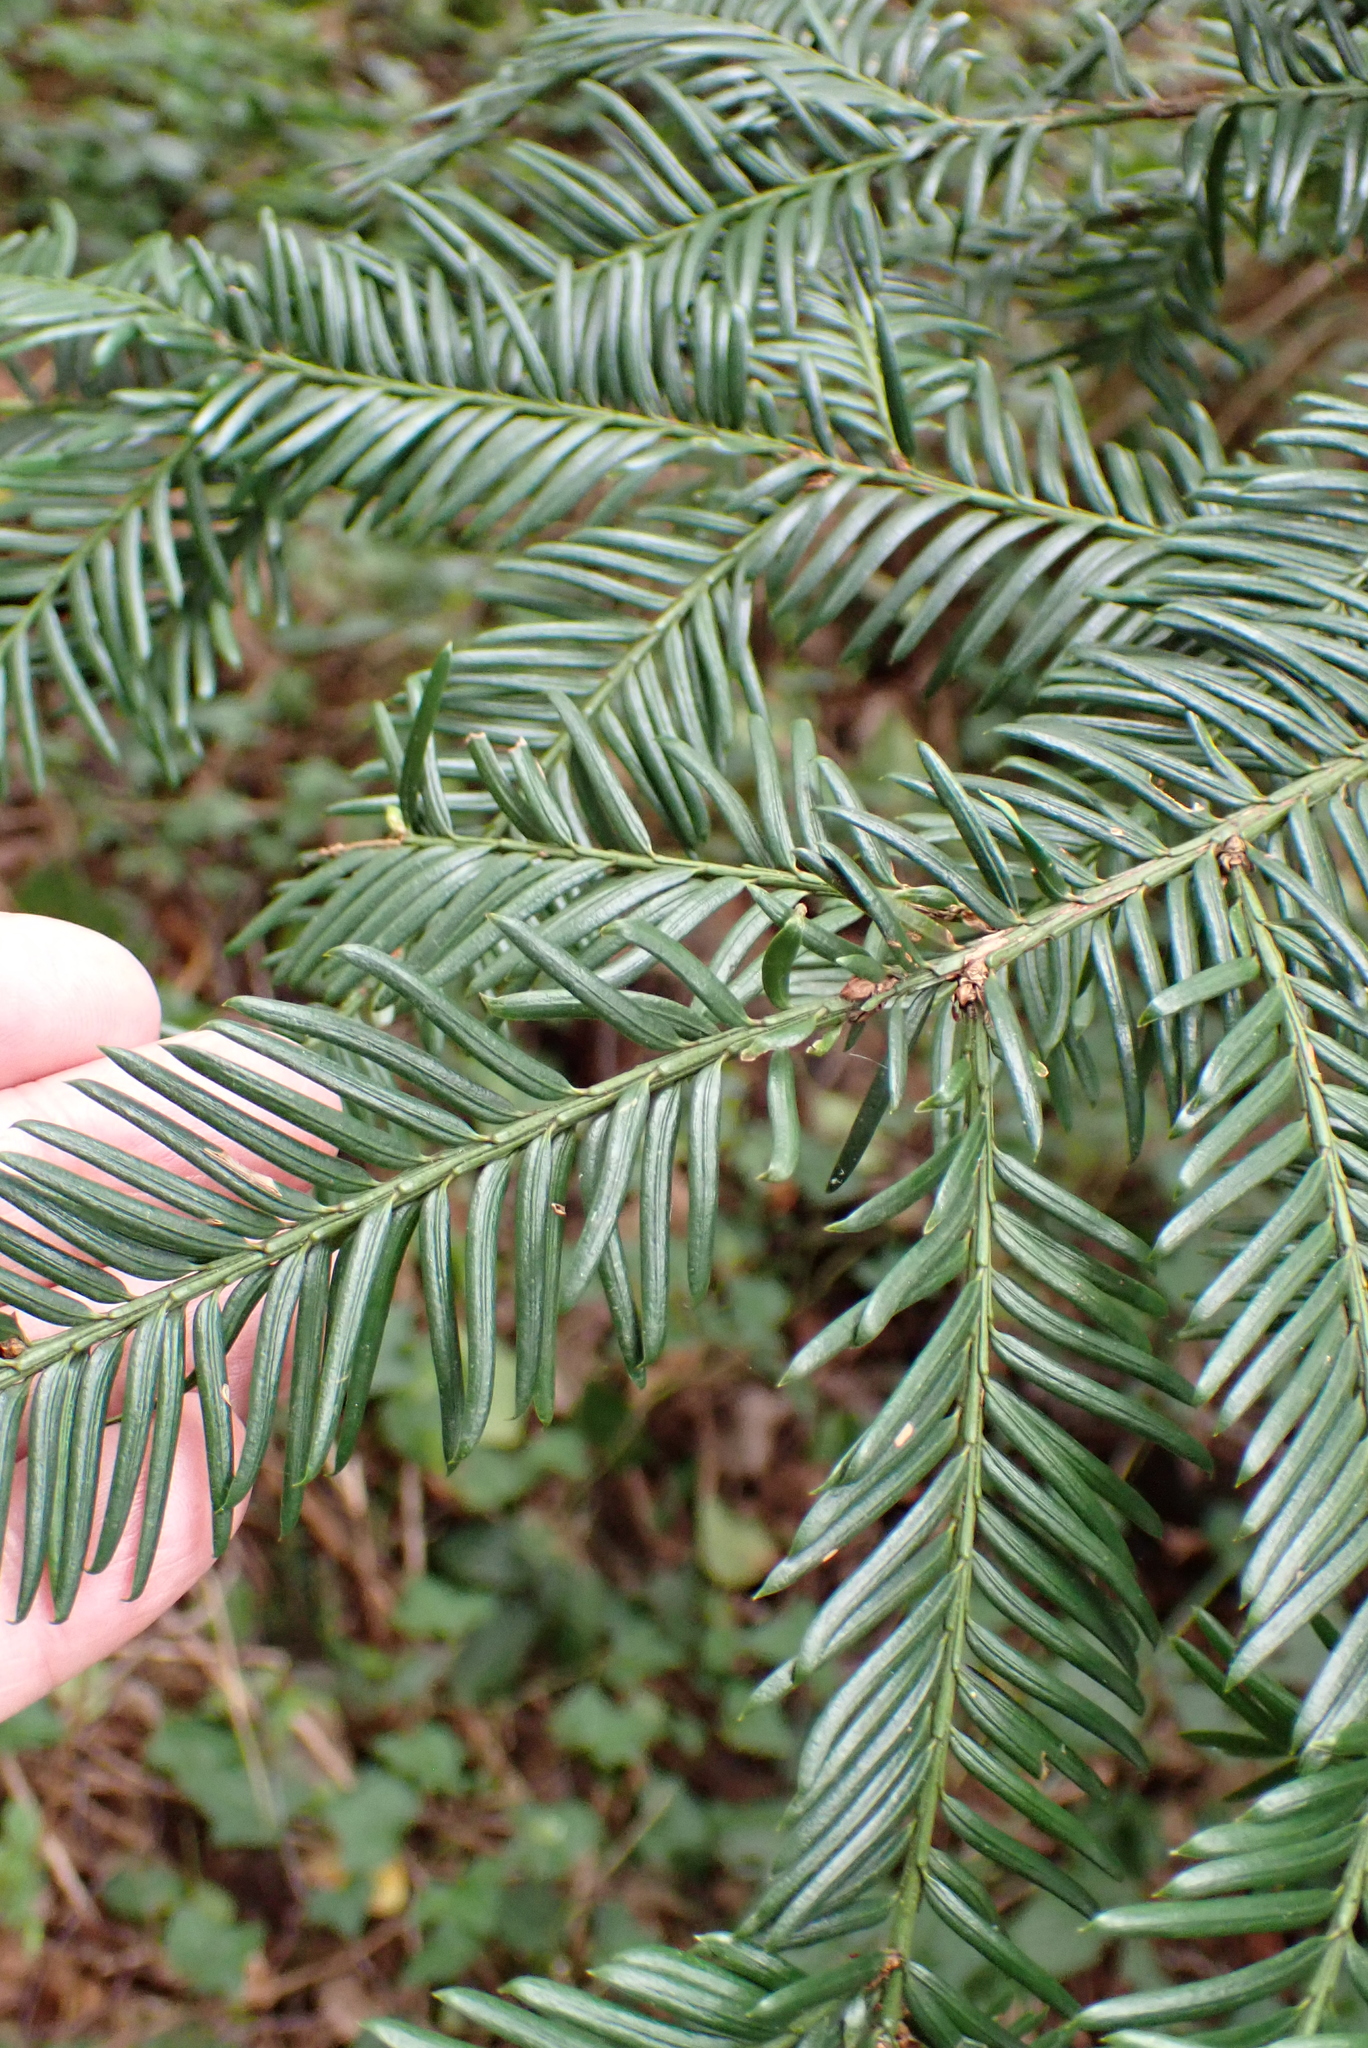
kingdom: Plantae
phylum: Tracheophyta
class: Pinopsida
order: Pinales
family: Taxaceae
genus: Taxus
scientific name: Taxus baccata
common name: Yew
